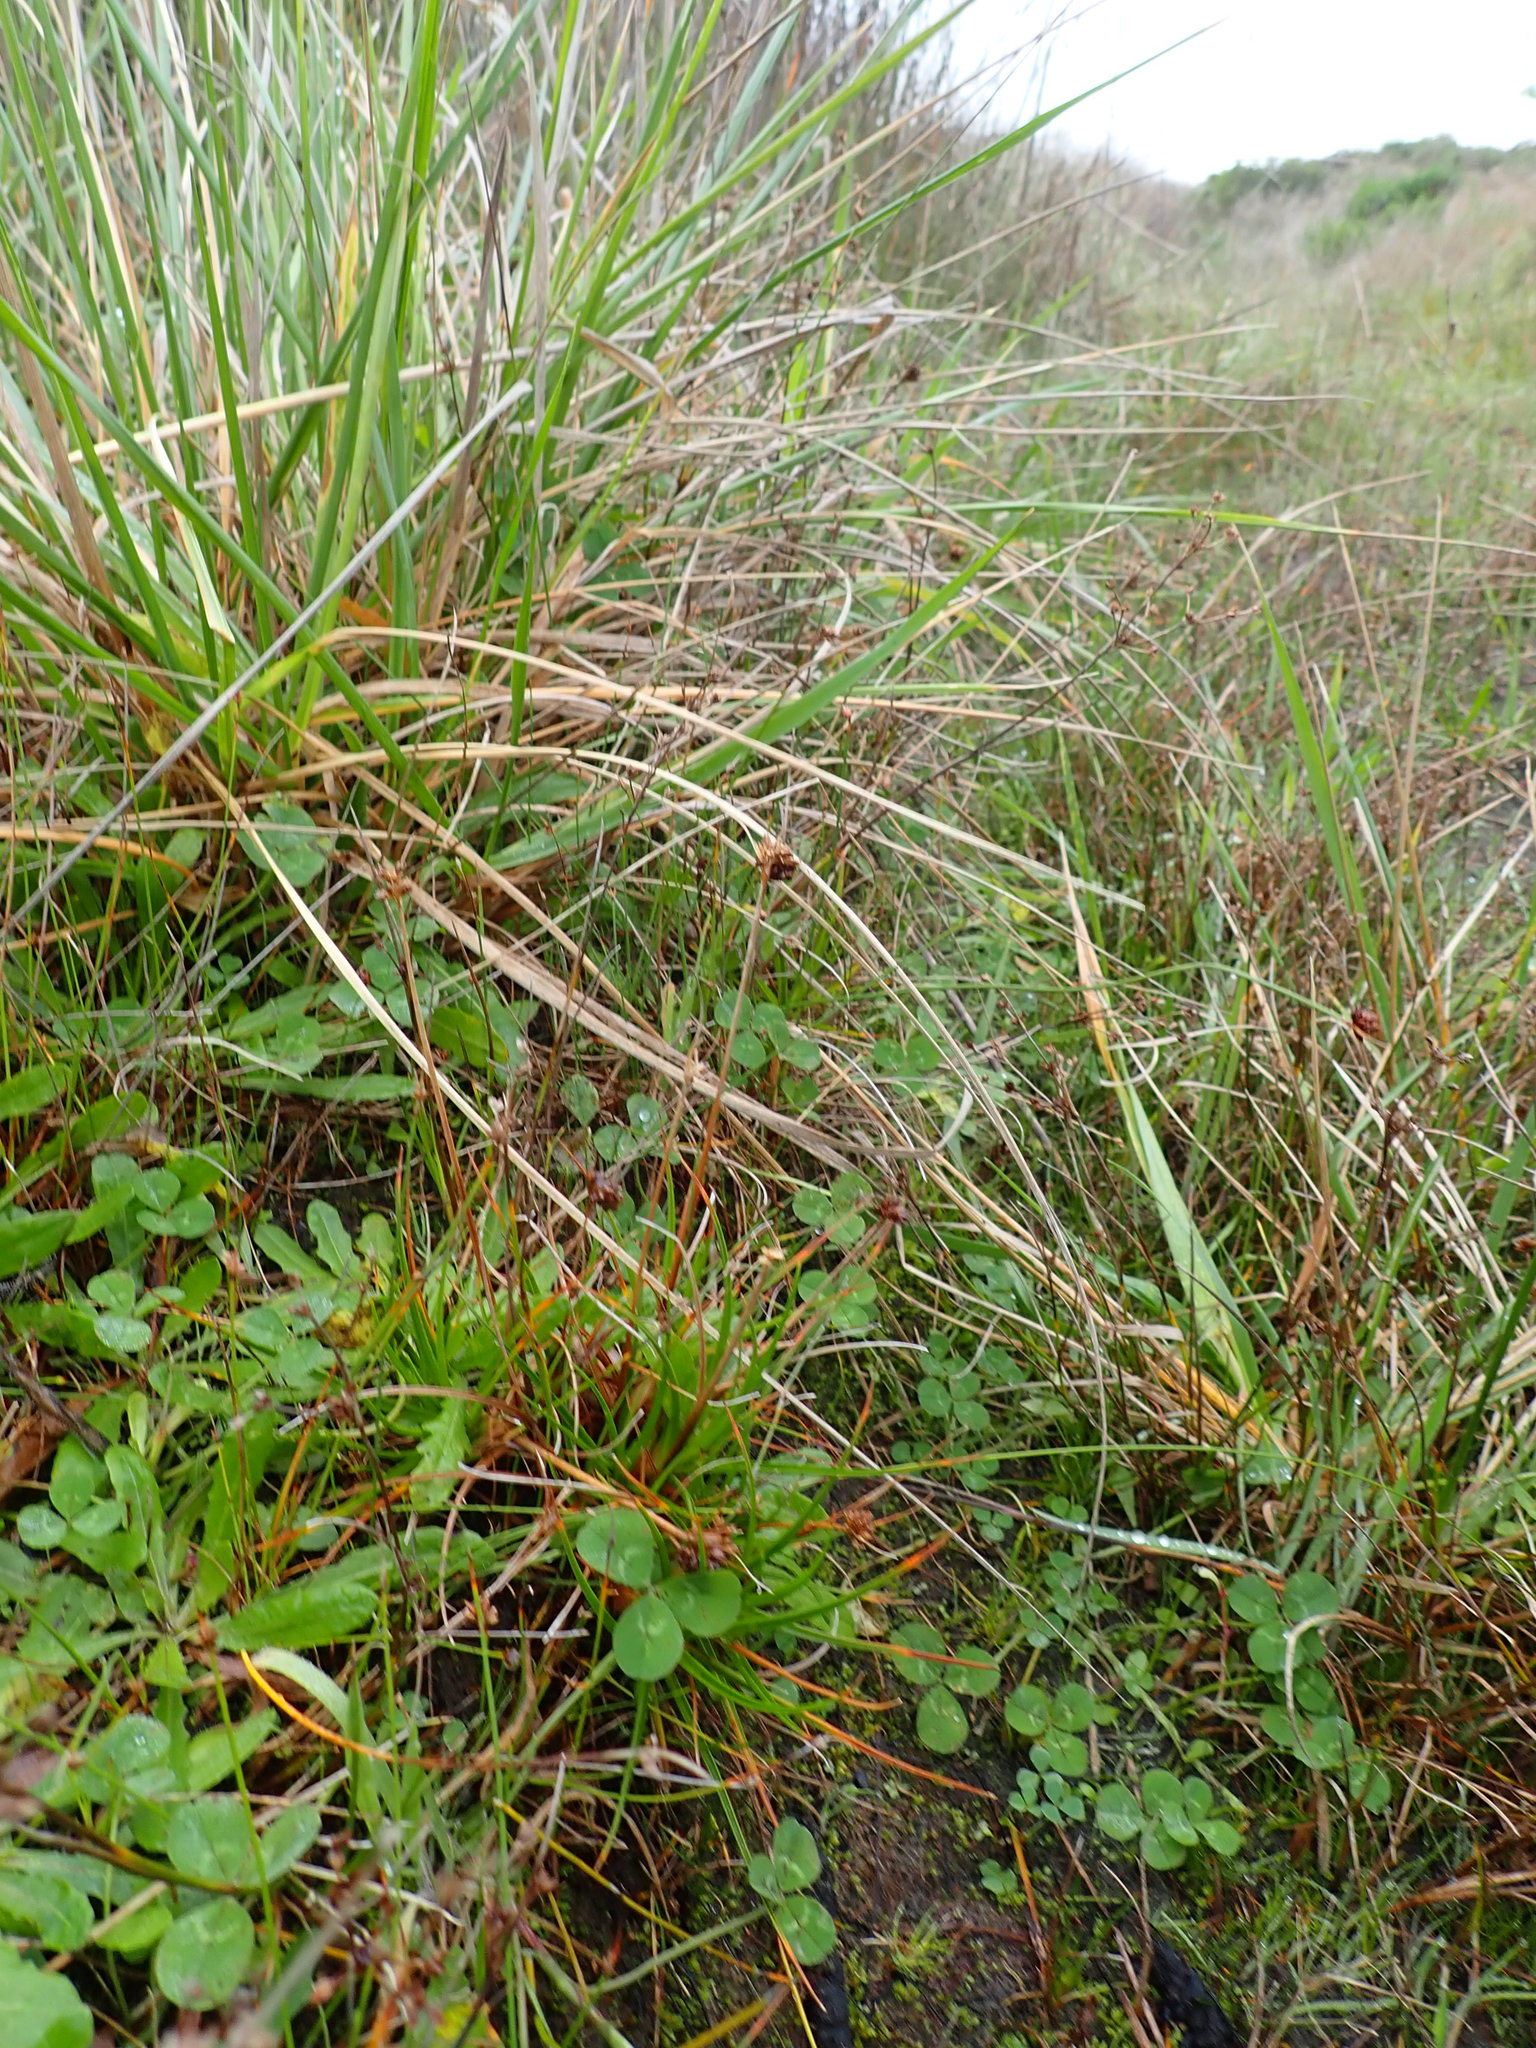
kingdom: Plantae
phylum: Tracheophyta
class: Liliopsida
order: Poales
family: Juncaceae
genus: Juncus
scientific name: Juncus caespiticius
